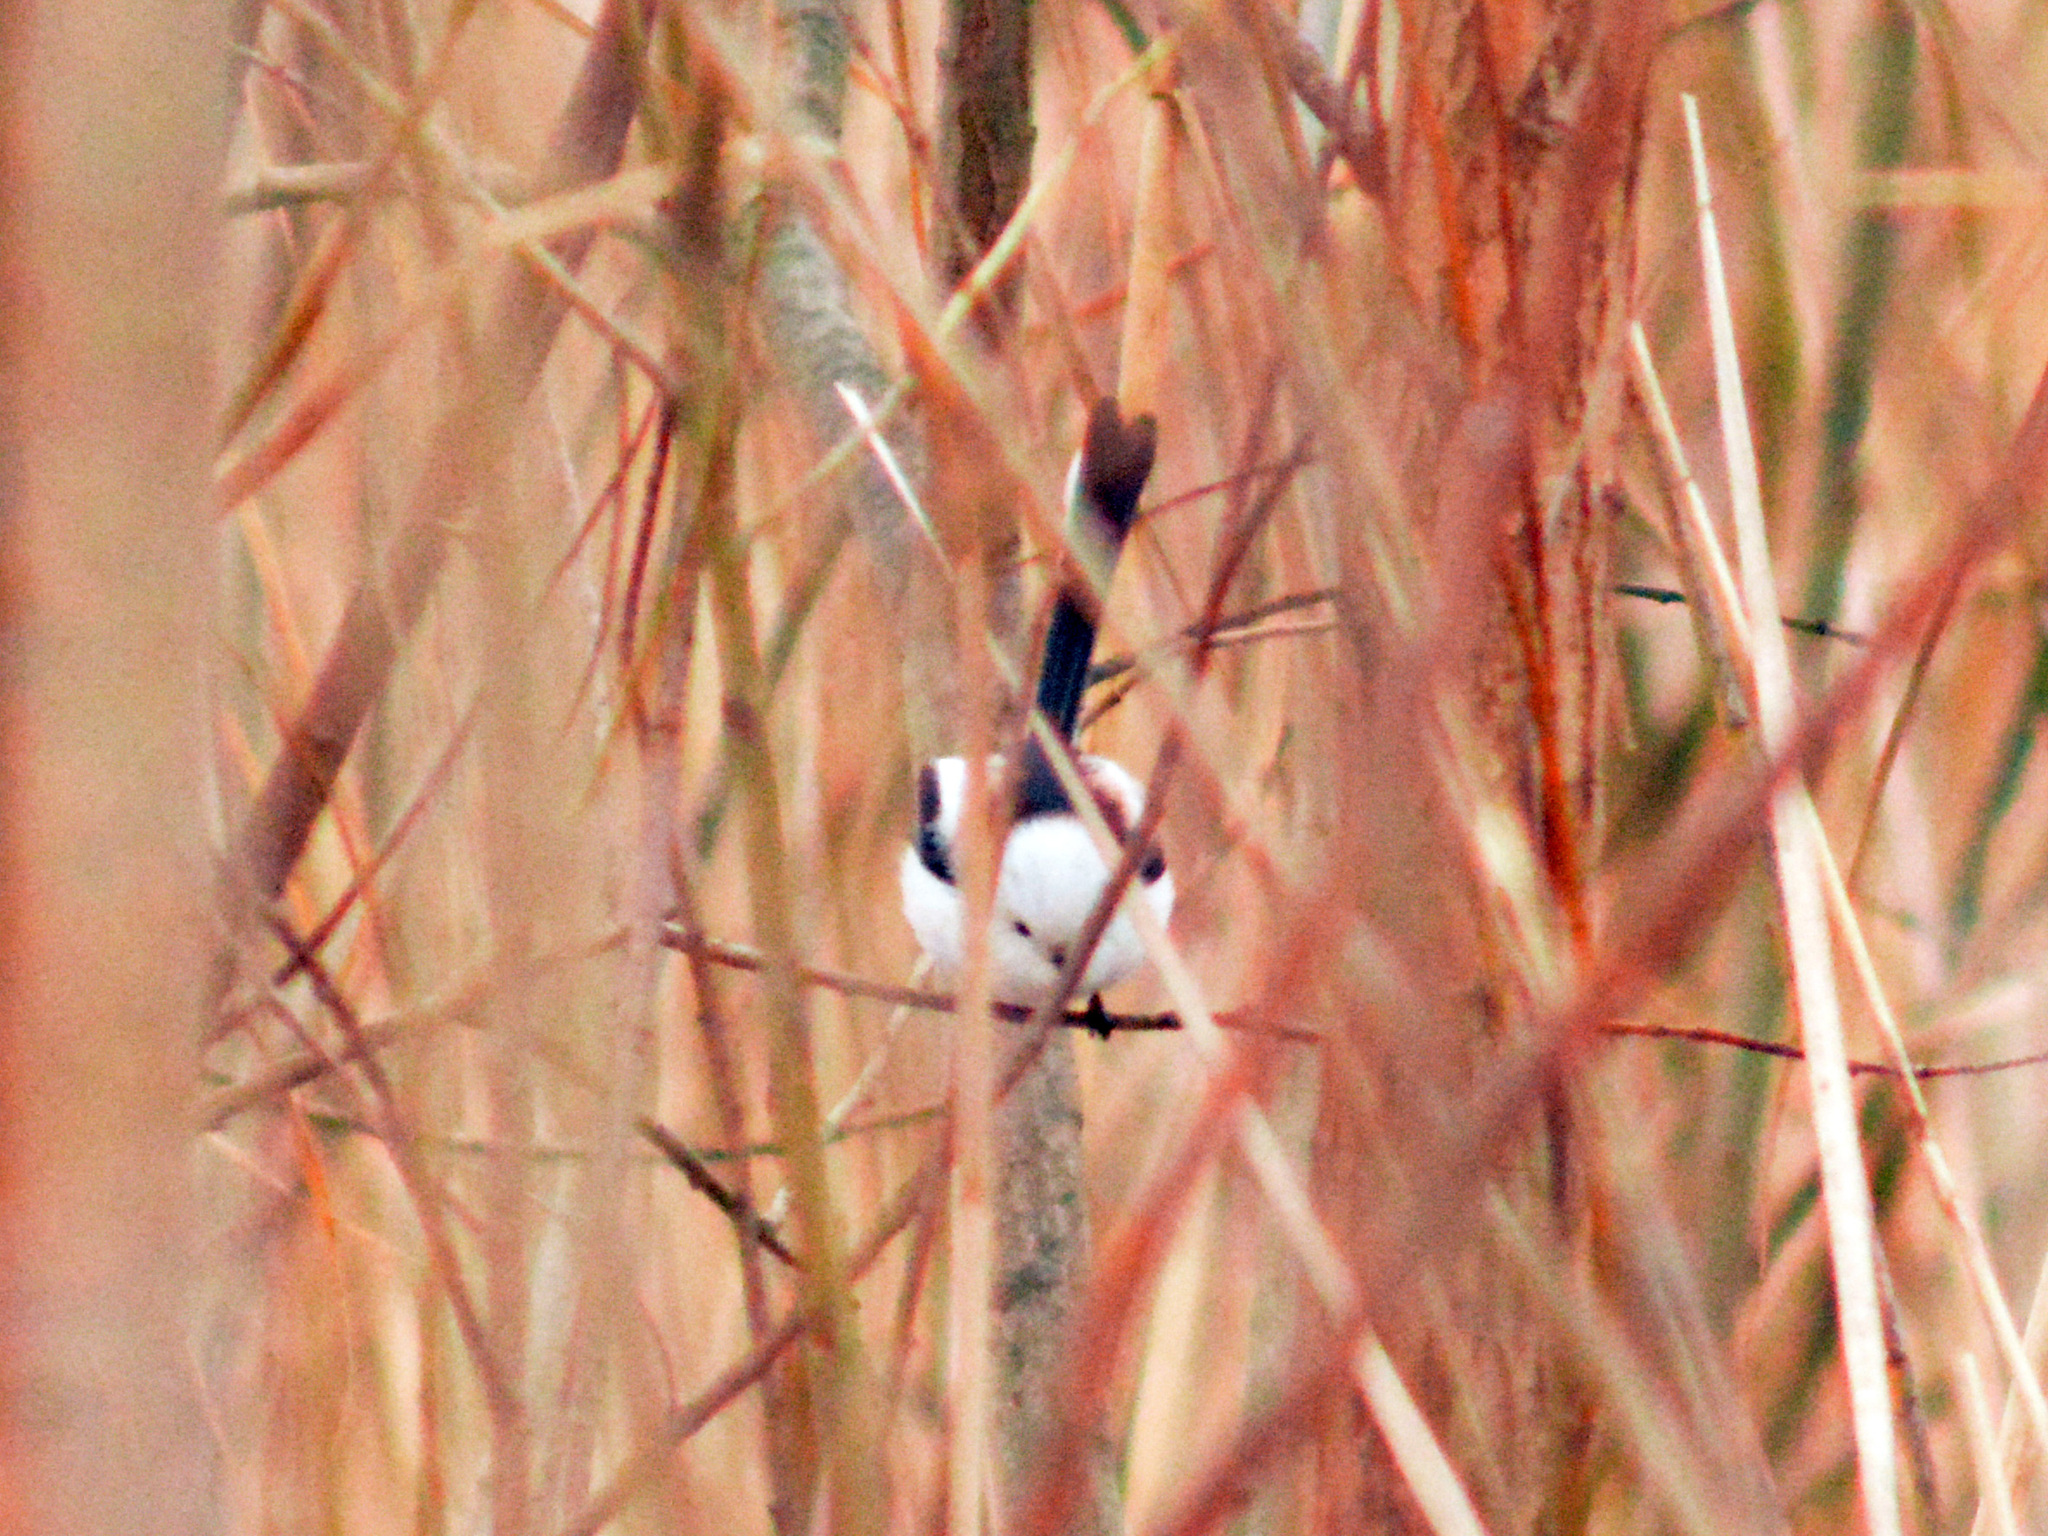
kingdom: Animalia
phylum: Chordata
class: Aves
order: Passeriformes
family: Aegithalidae
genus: Aegithalos
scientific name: Aegithalos caudatus
